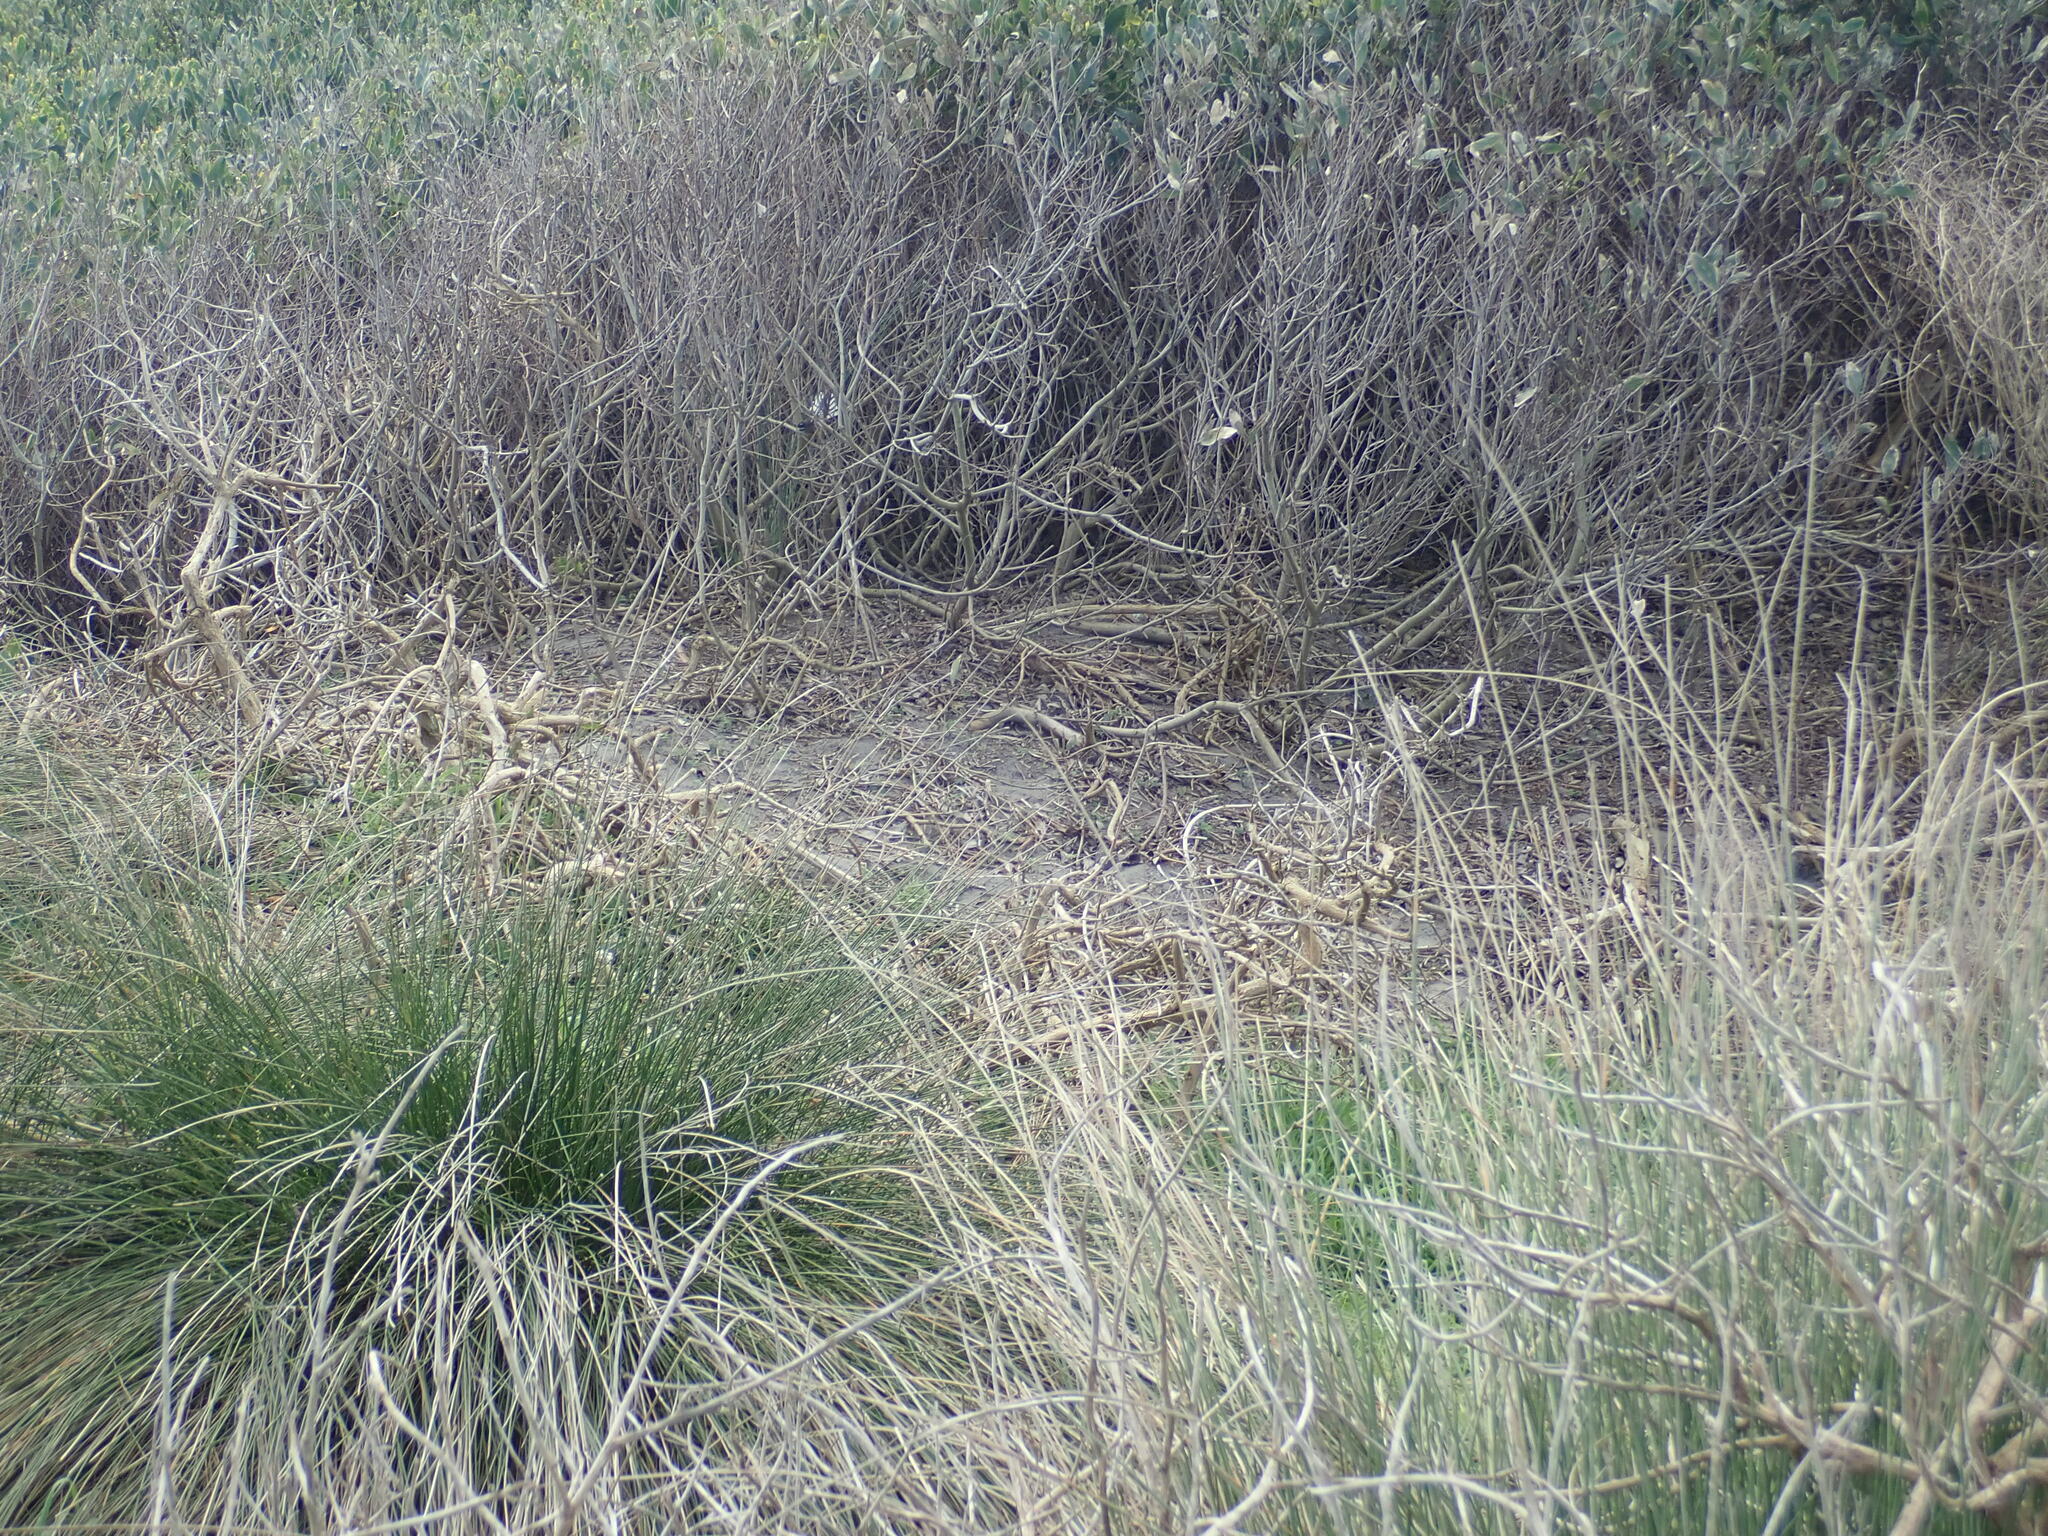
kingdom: Animalia
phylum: Chordata
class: Aves
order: Passeriformes
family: Rhipiduridae
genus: Rhipidura
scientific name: Rhipidura fuliginosa
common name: New zealand fantail
